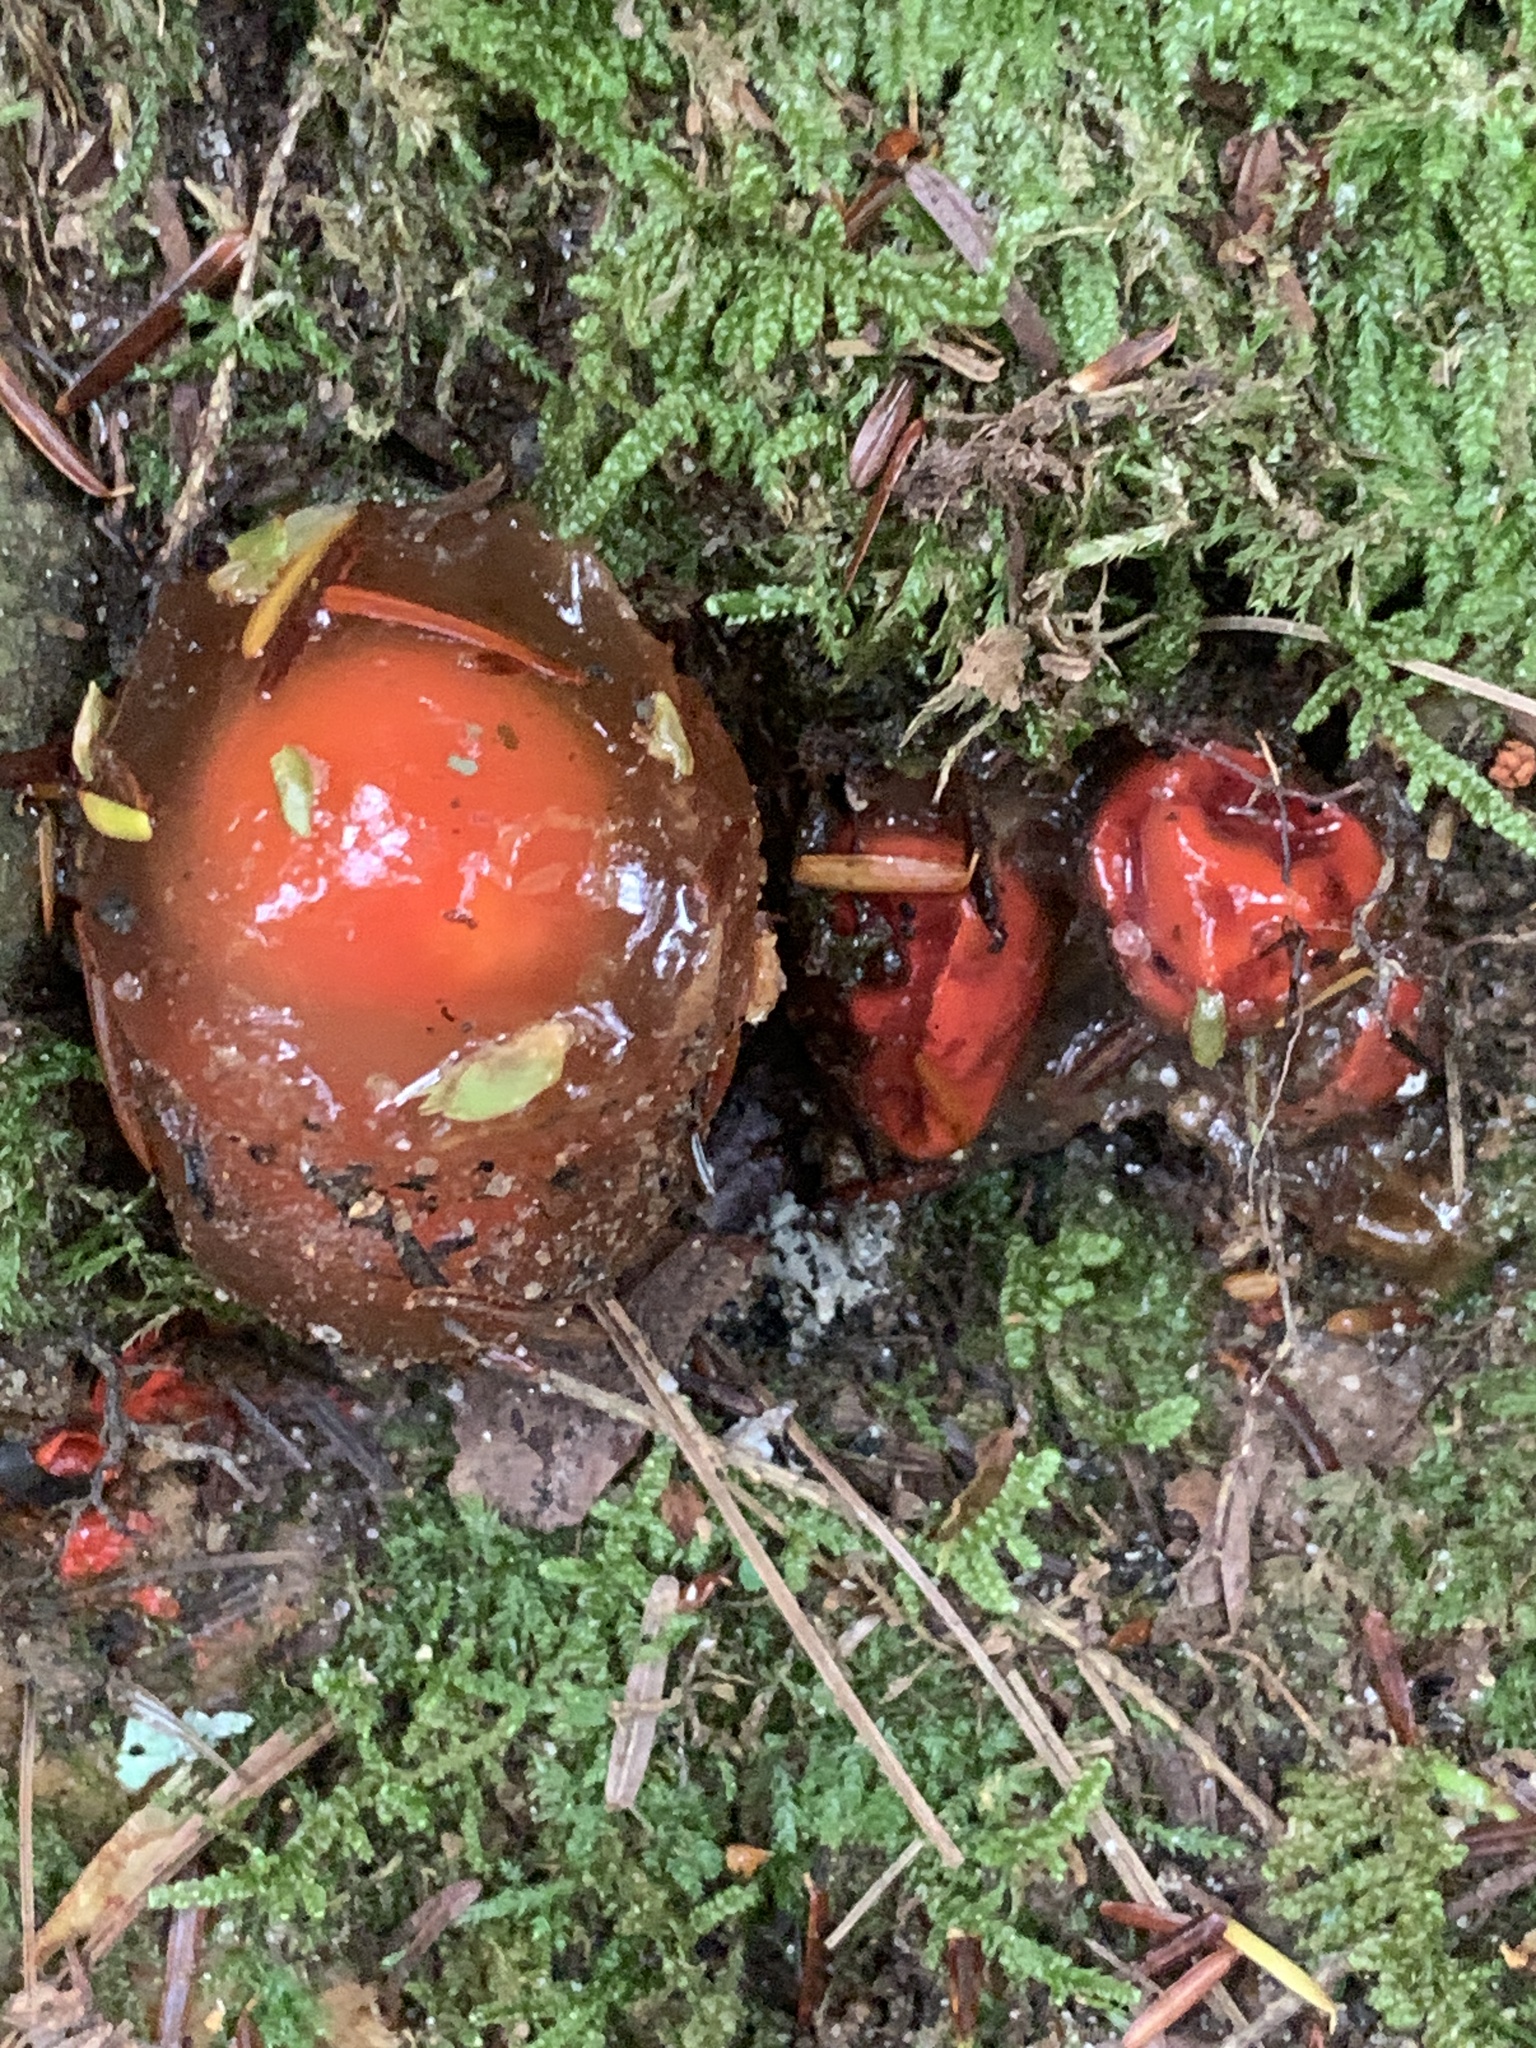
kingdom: Fungi
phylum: Basidiomycota
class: Agaricomycetes
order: Boletales
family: Calostomataceae
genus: Calostoma
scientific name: Calostoma cinnabarinum
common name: Stalked puffball-in-aspic
